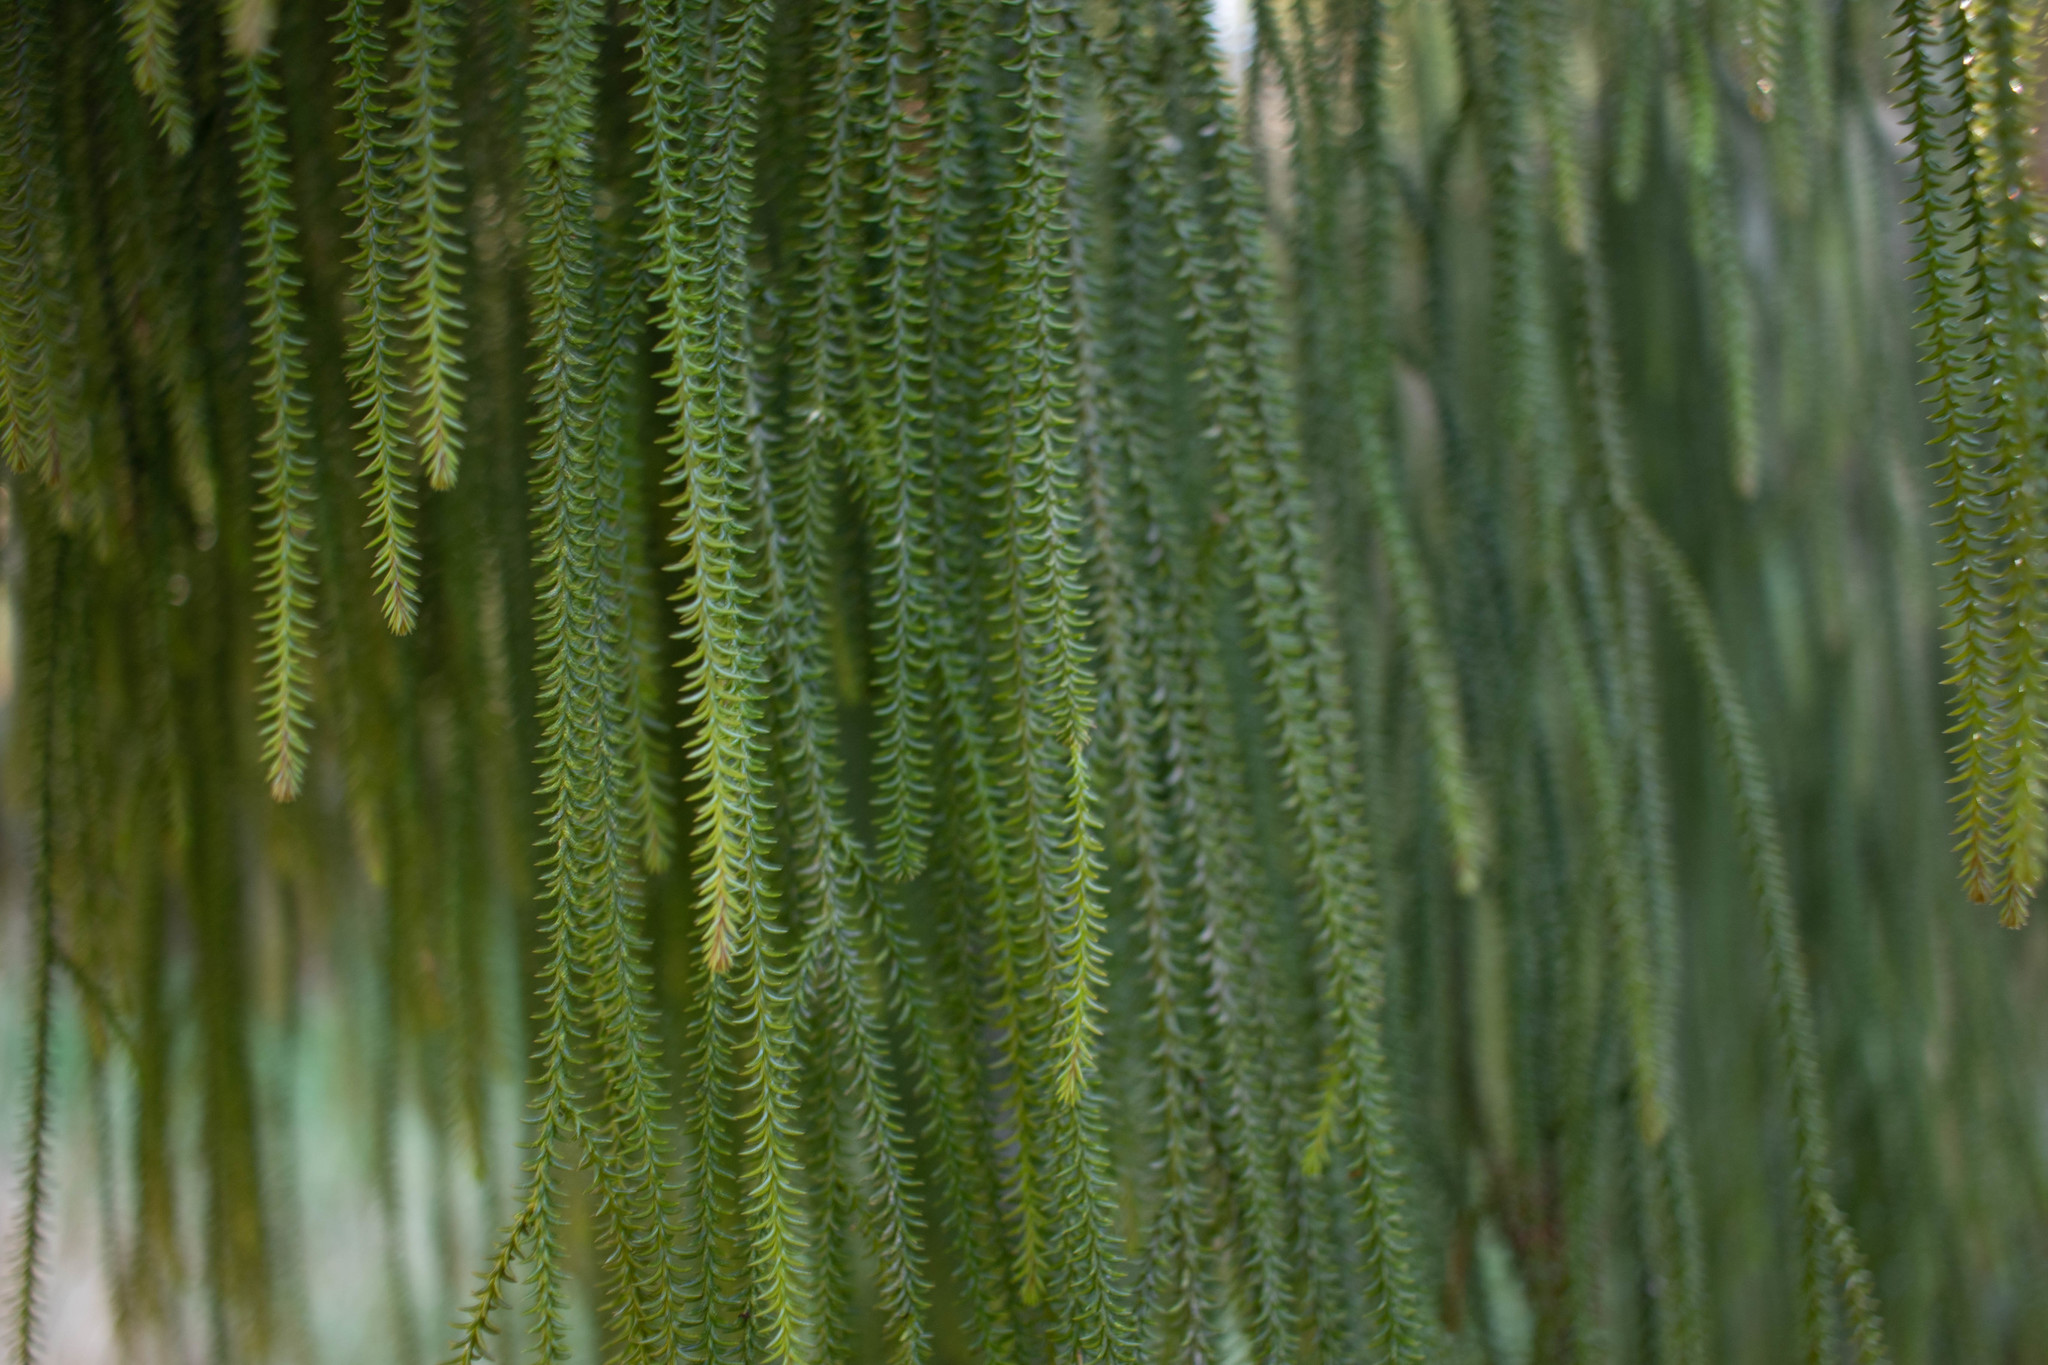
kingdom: Plantae
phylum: Tracheophyta
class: Pinopsida
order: Pinales
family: Podocarpaceae
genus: Dacrydium
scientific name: Dacrydium cupressinum
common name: Red pine
